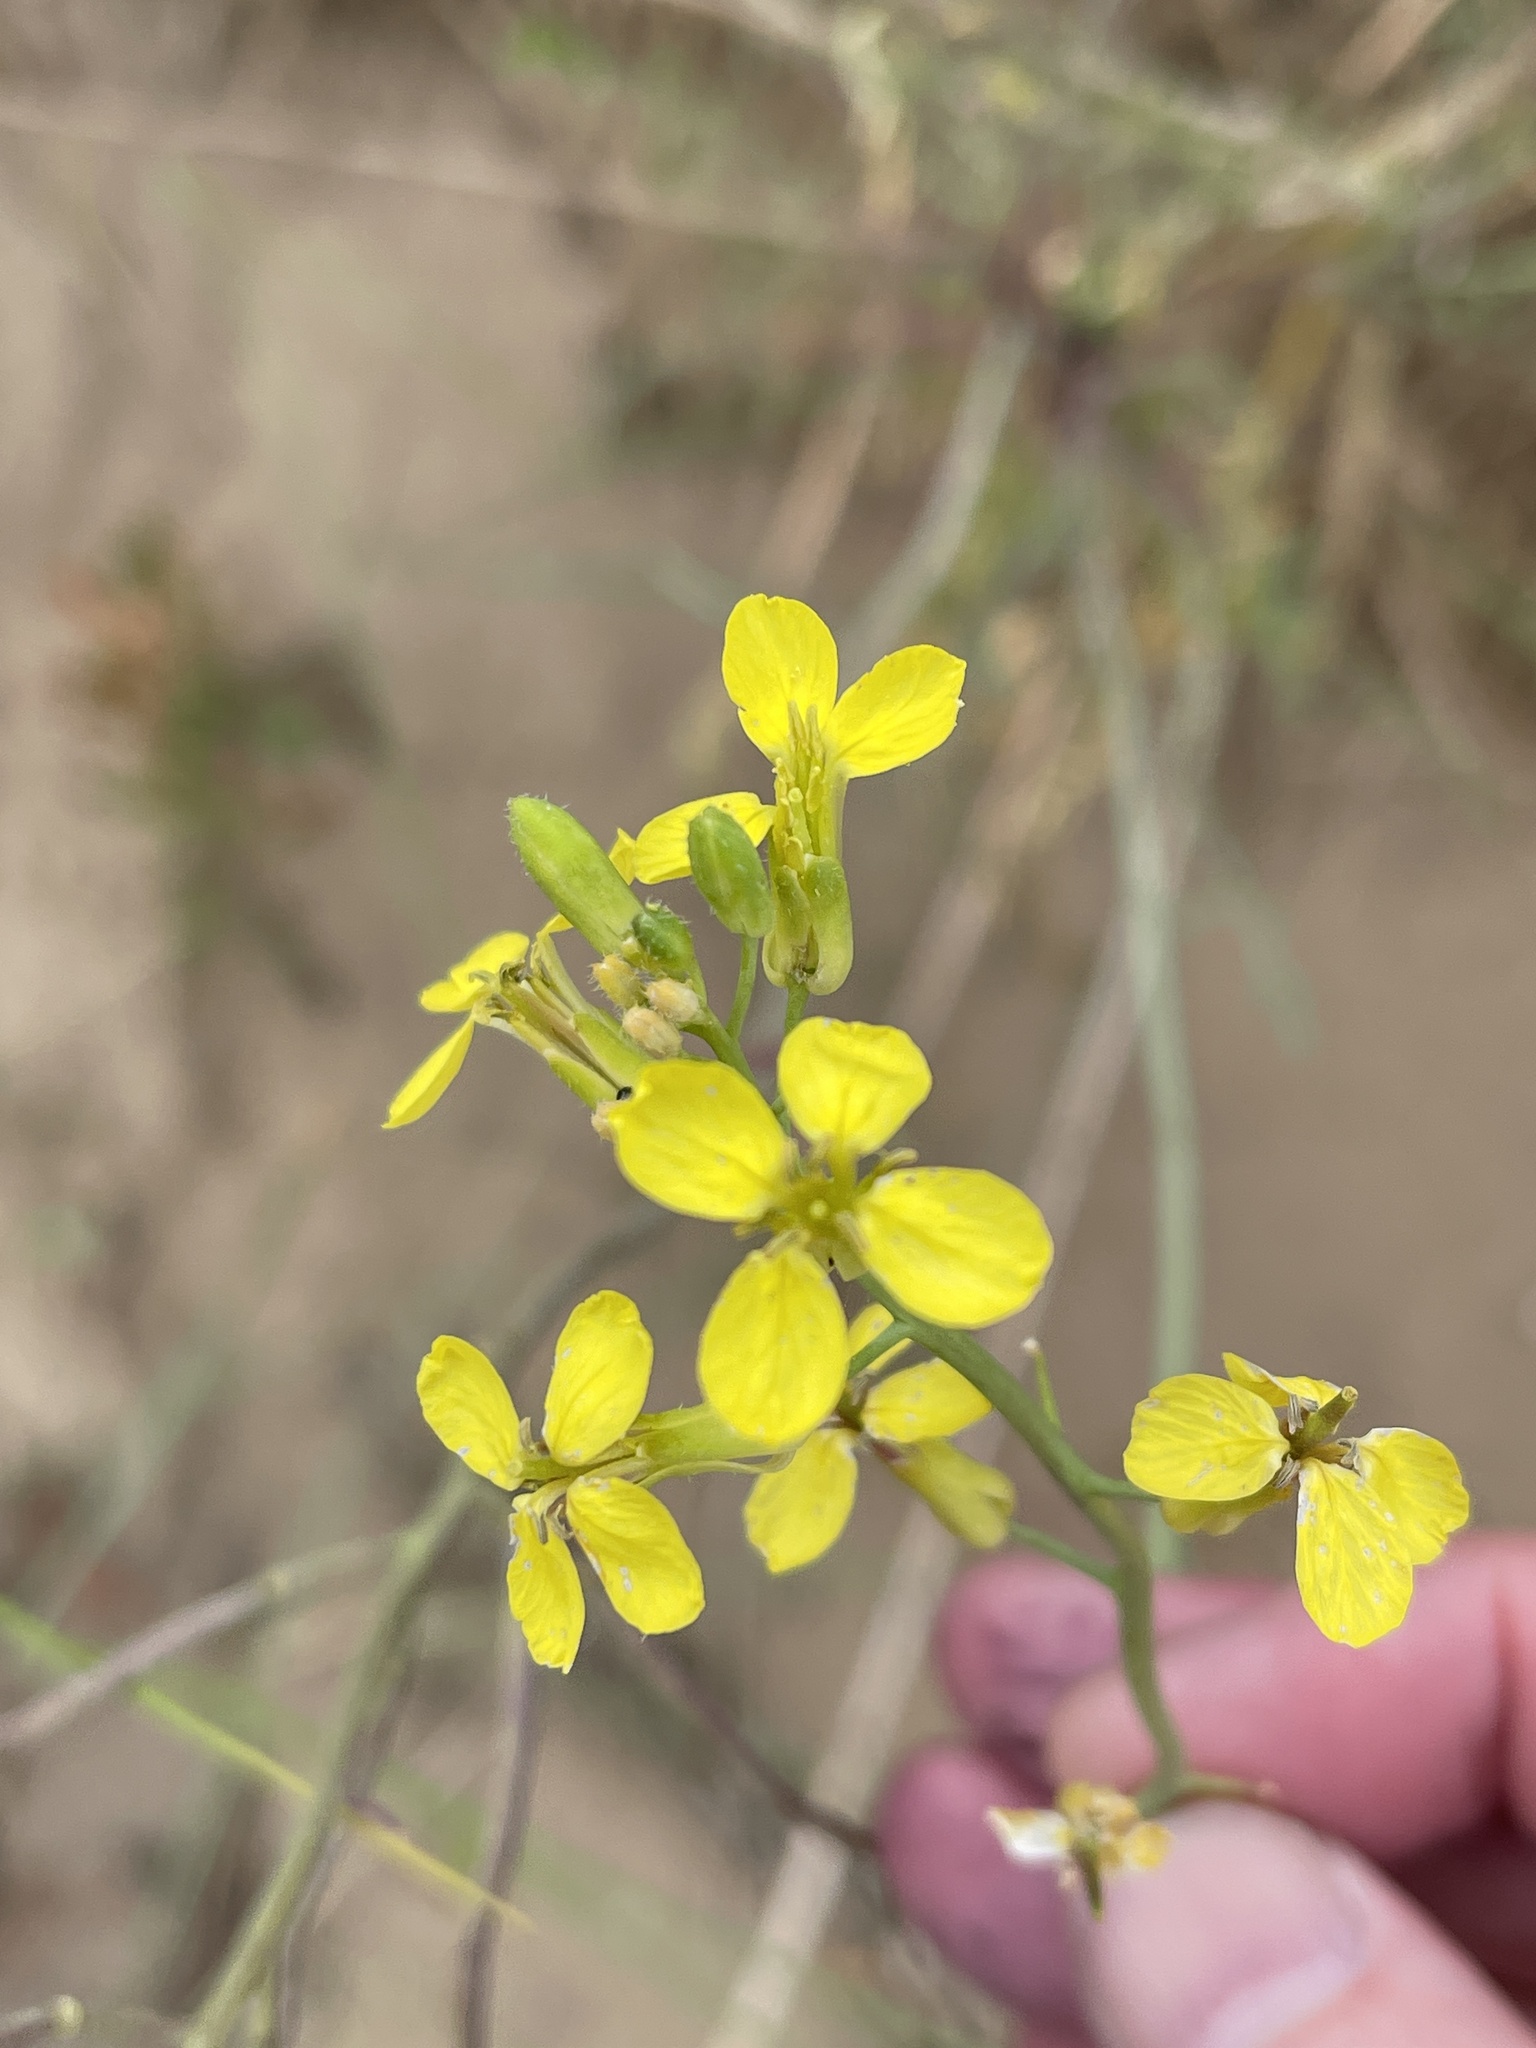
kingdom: Plantae
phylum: Tracheophyta
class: Magnoliopsida
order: Brassicales
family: Brassicaceae
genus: Coincya
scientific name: Coincya monensis
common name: Star-mustard
